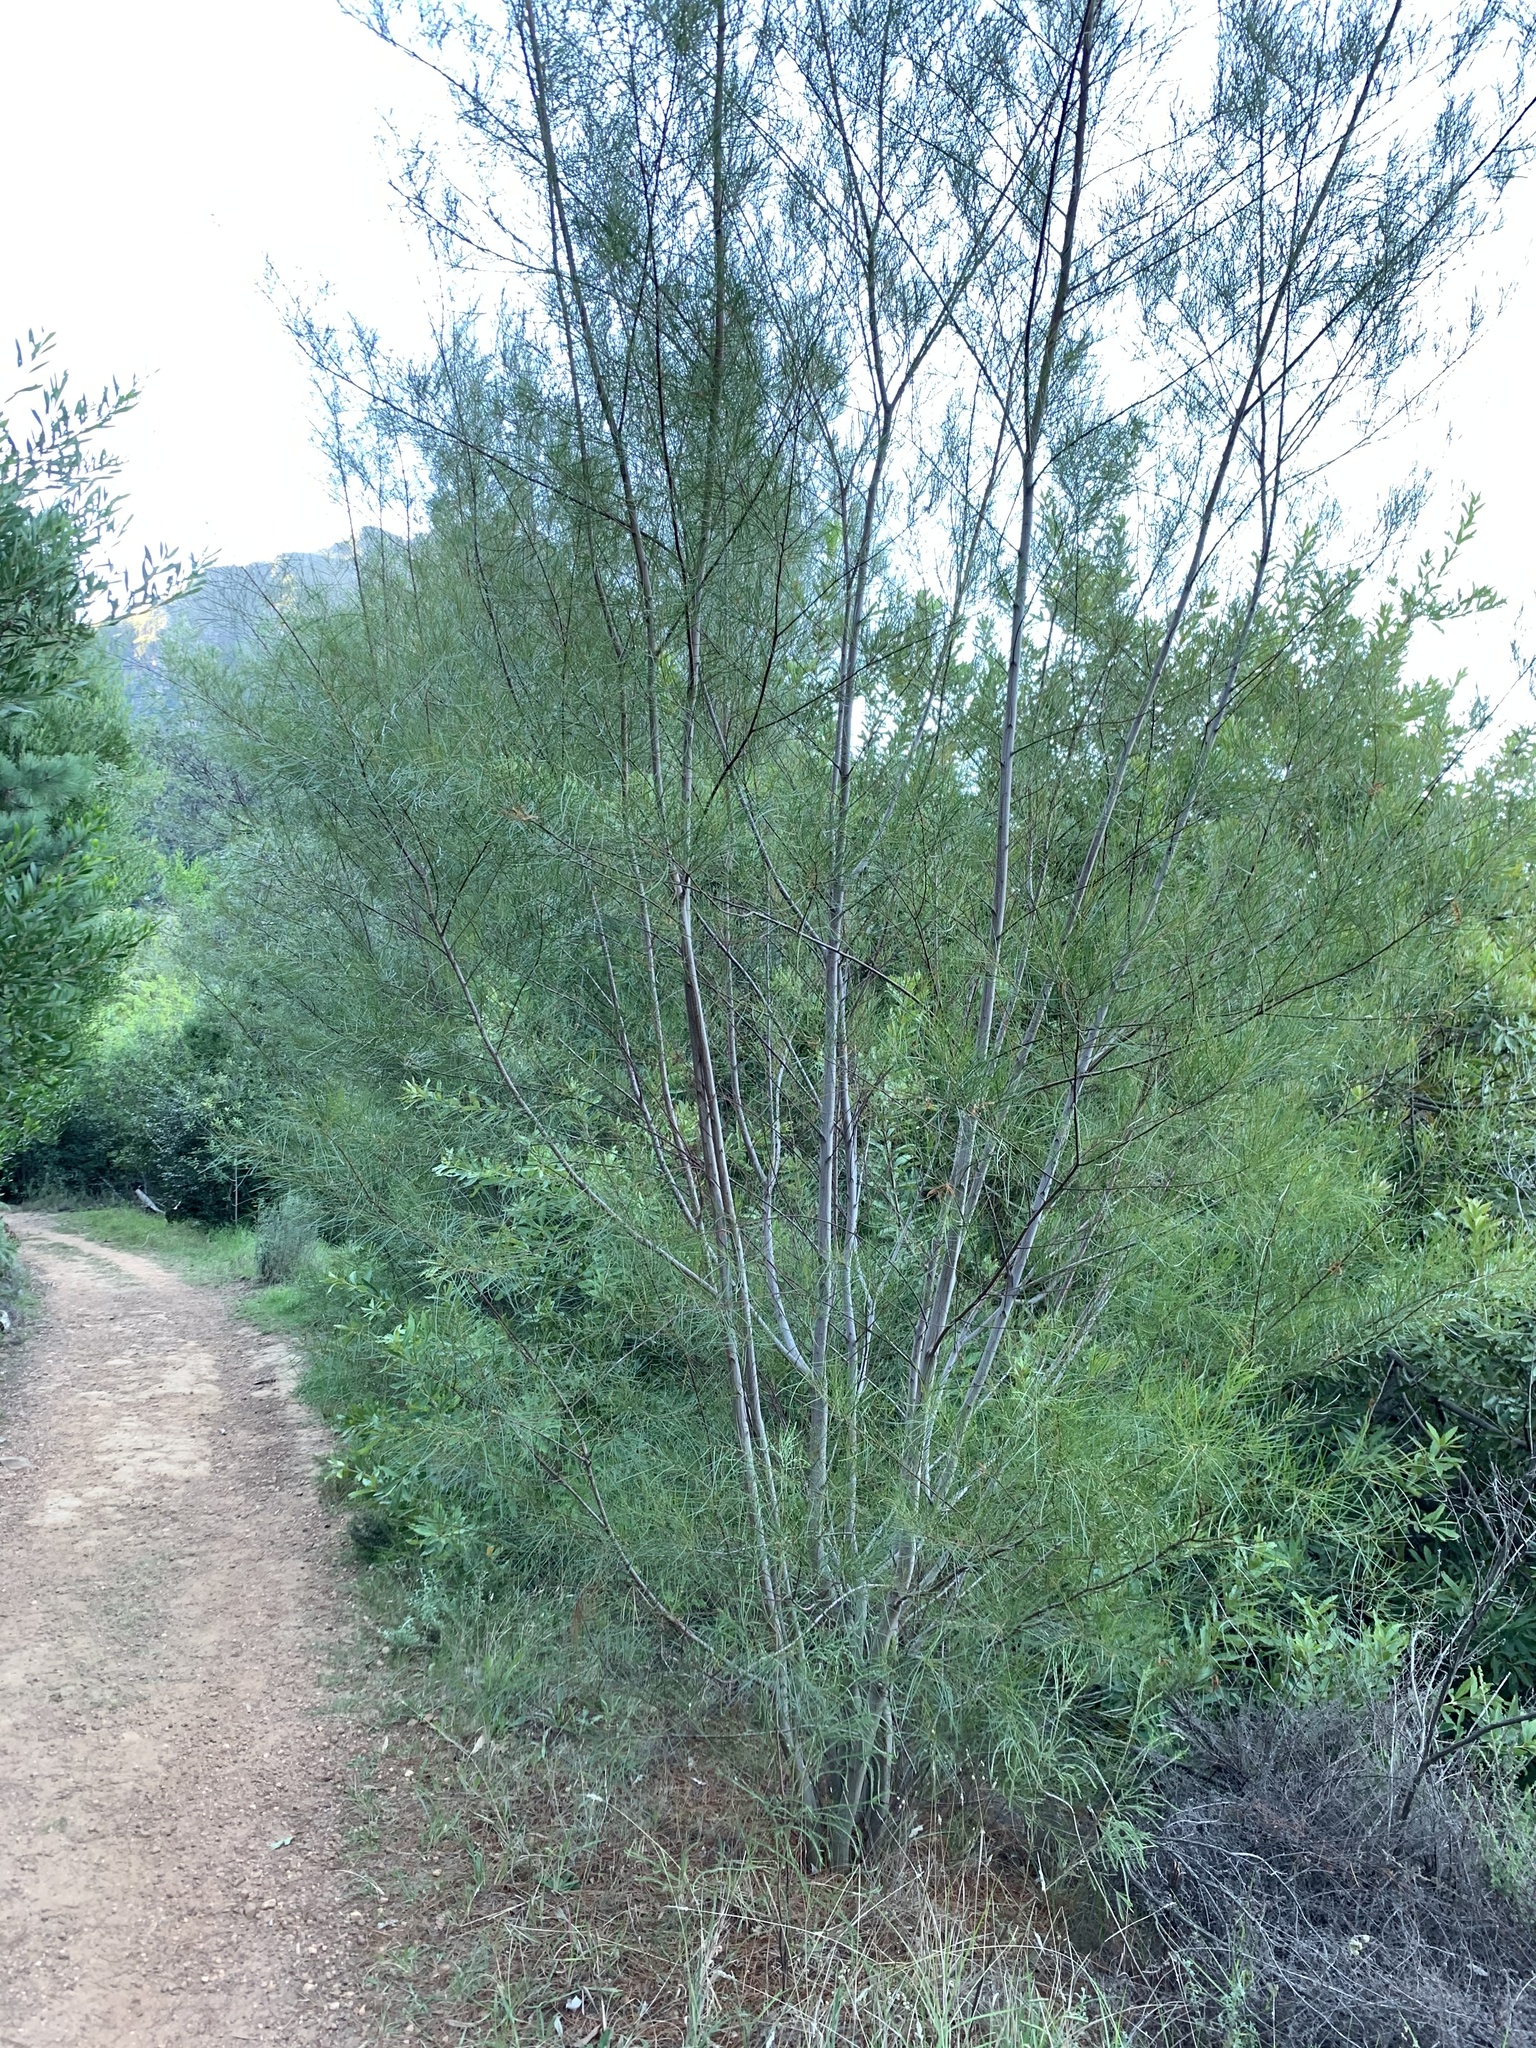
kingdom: Plantae
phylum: Tracheophyta
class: Magnoliopsida
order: Fabales
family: Fabaceae
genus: Acacia
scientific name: Acacia viscidula
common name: Sticky wattle
